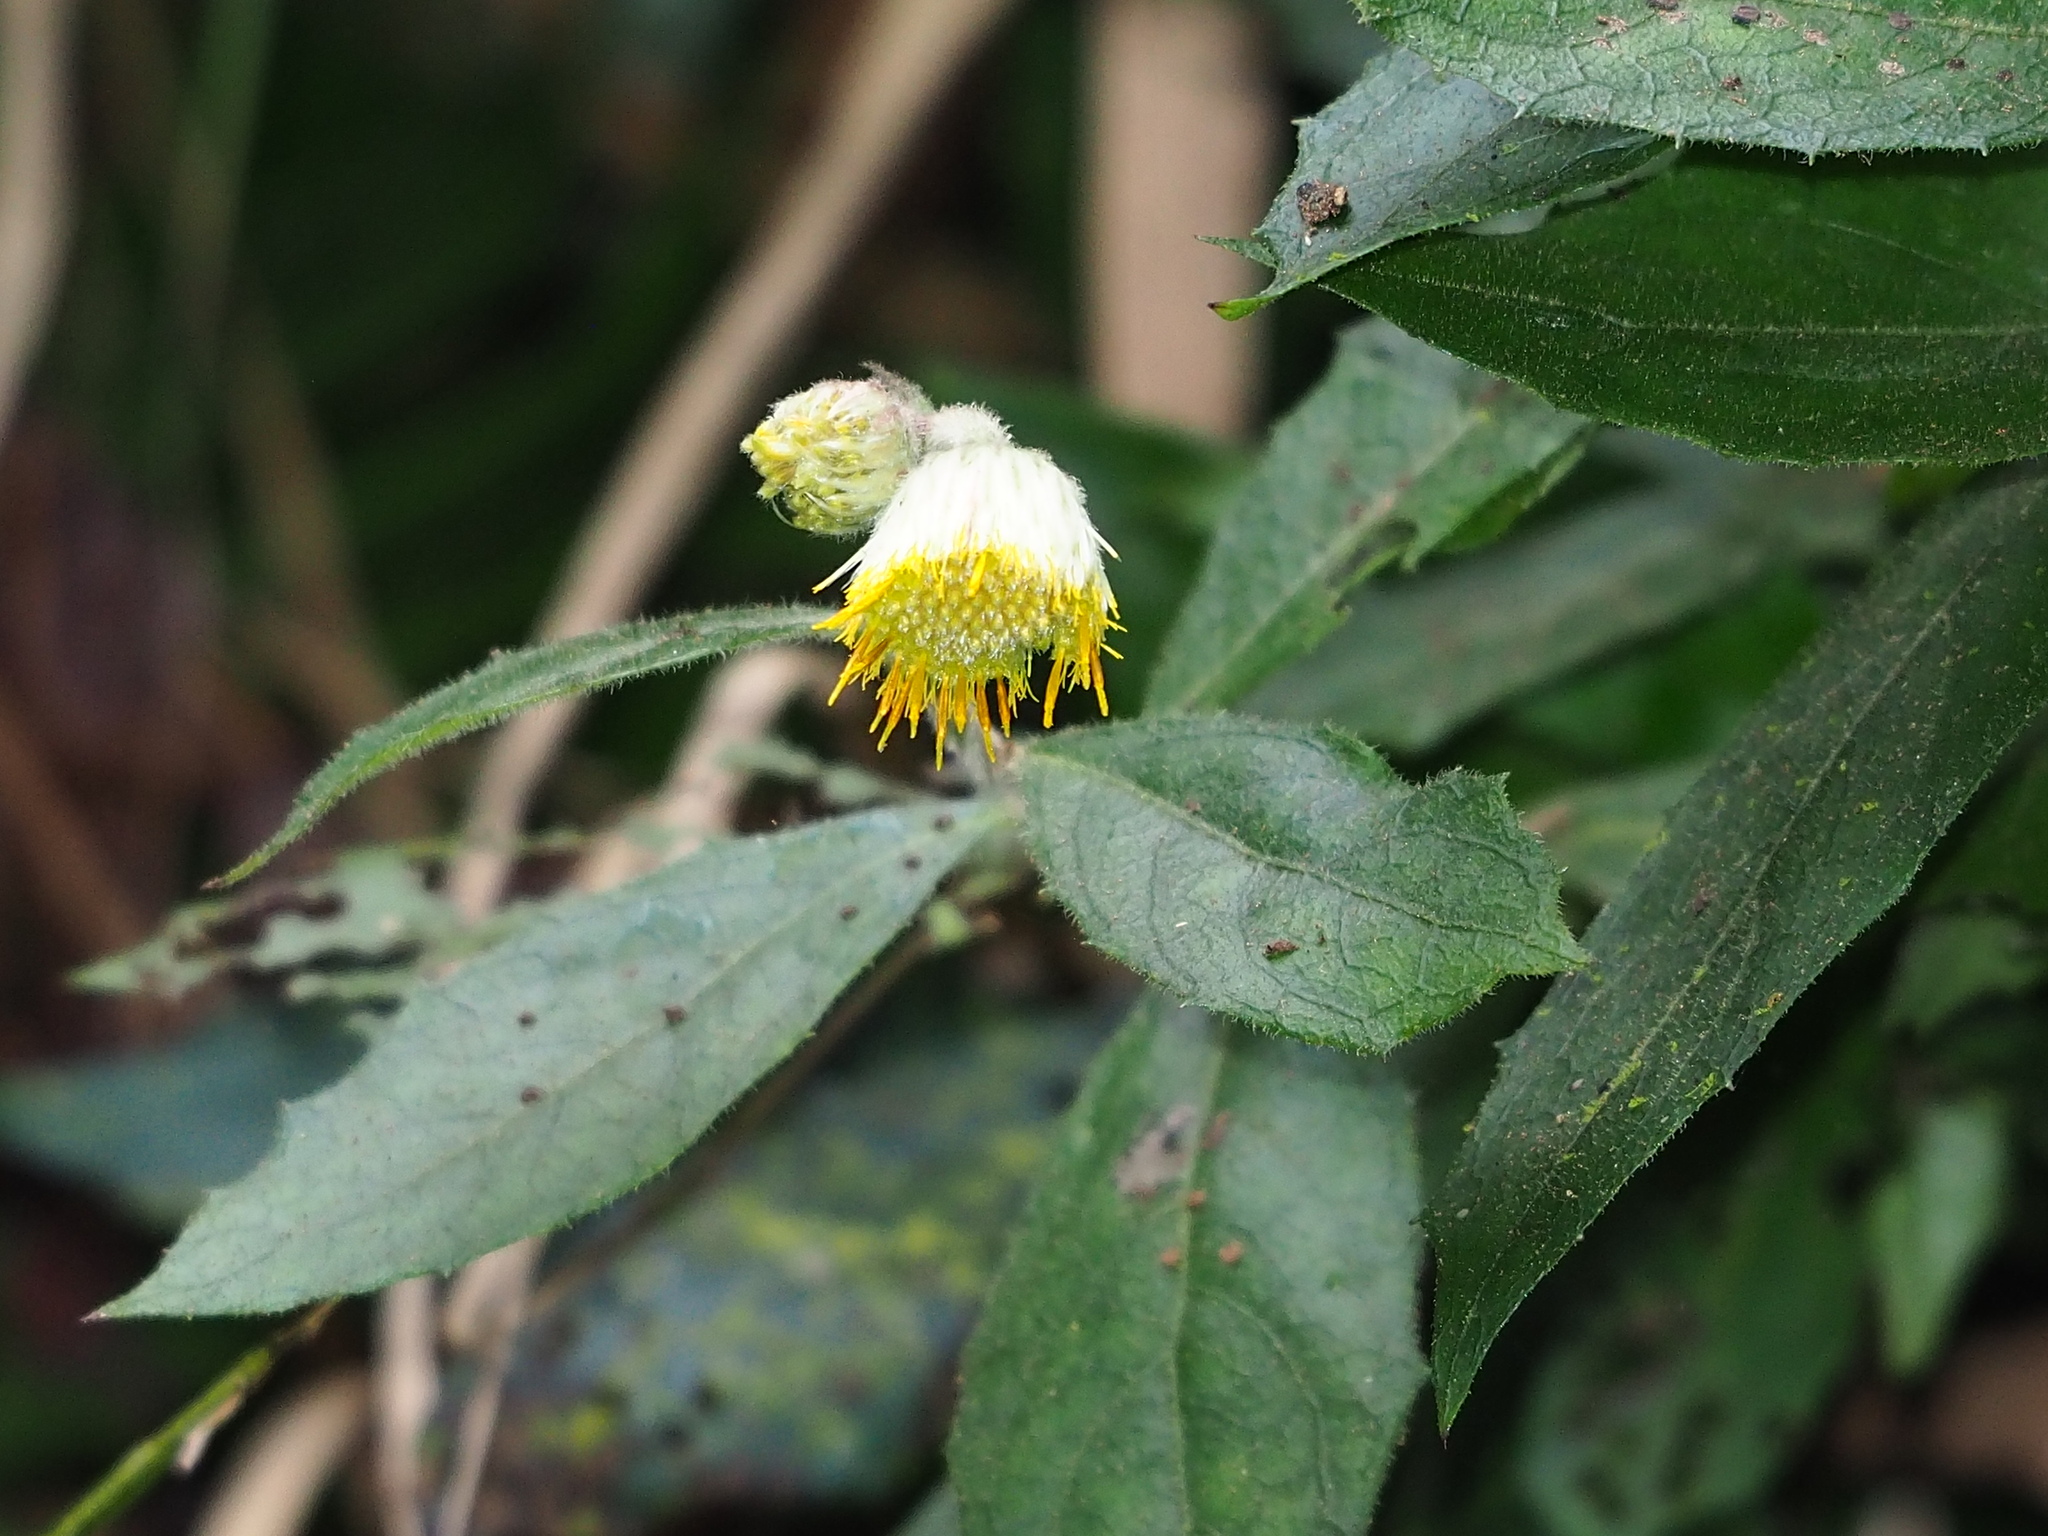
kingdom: Plantae
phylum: Tracheophyta
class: Magnoliopsida
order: Asterales
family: Asteraceae
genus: Blumea
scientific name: Blumea megacephala
